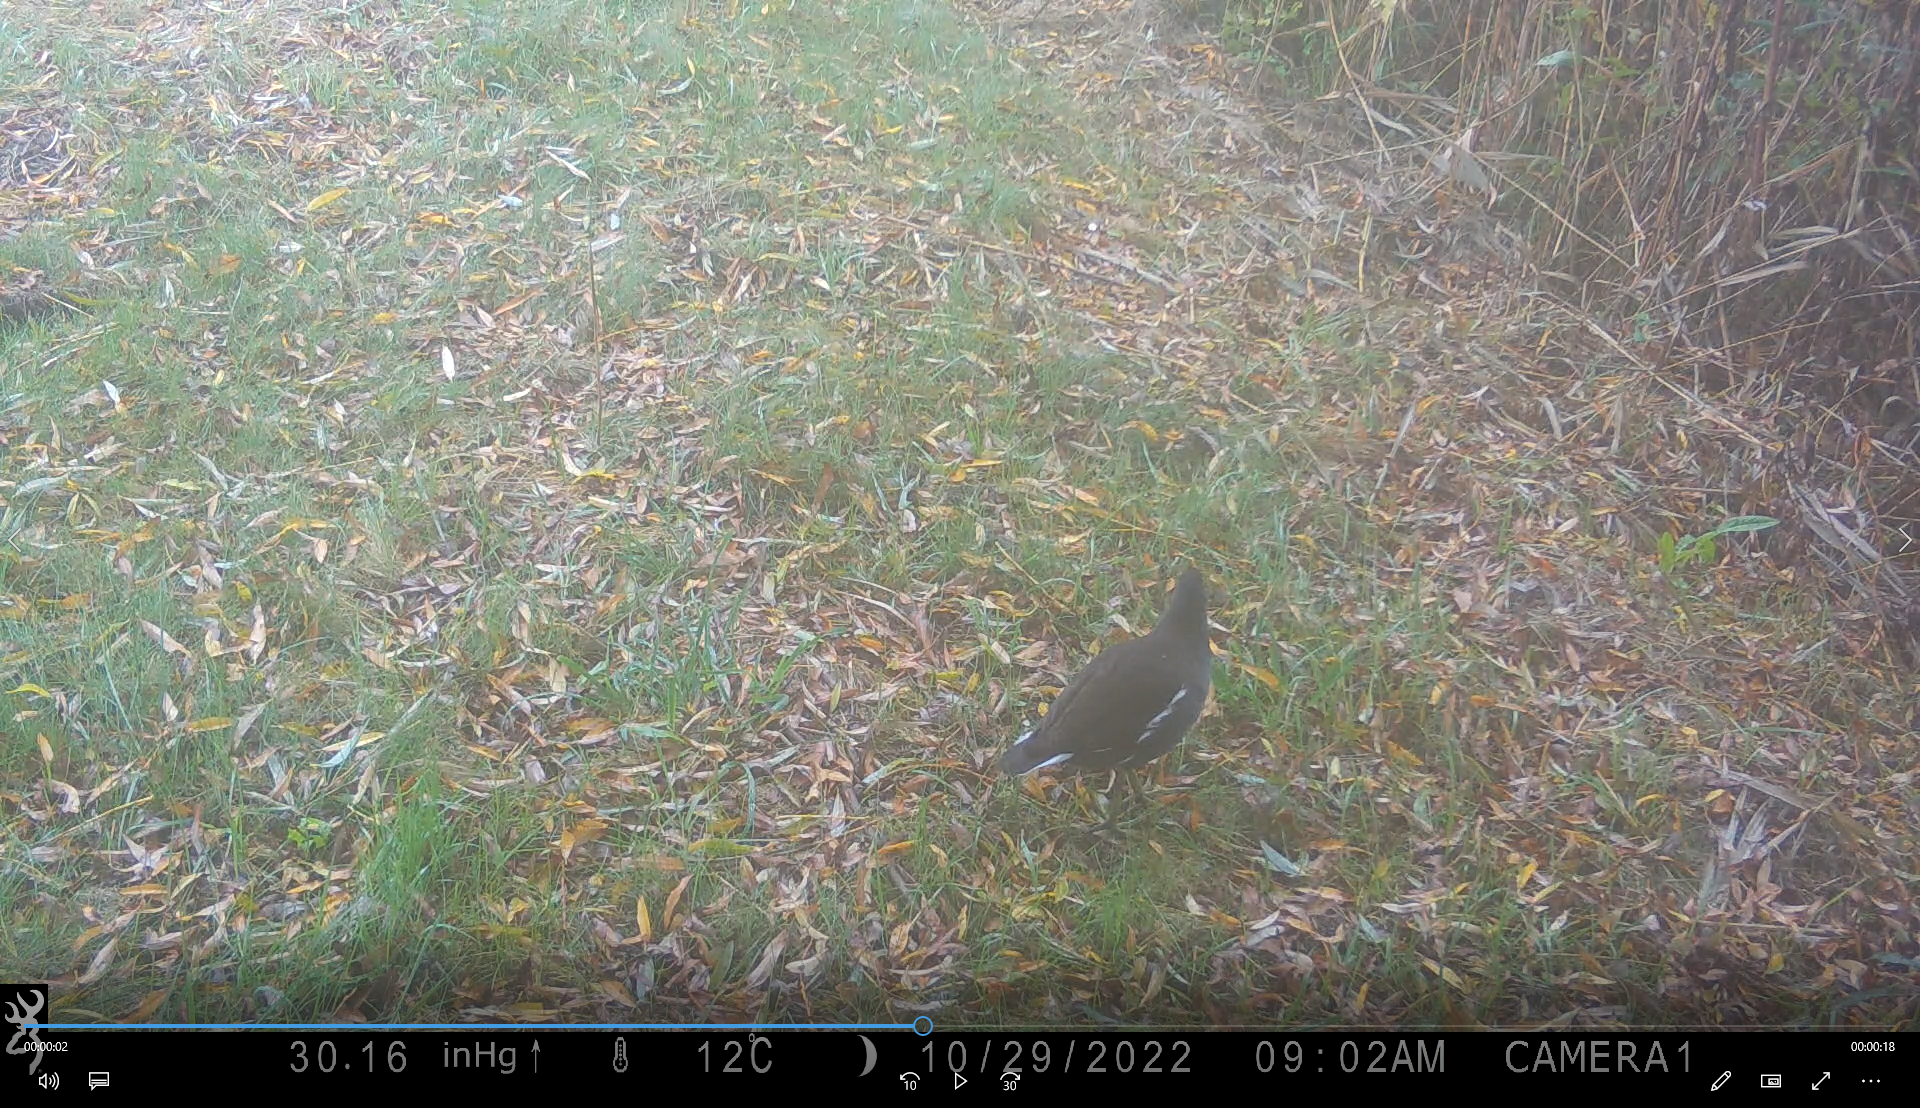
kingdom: Animalia
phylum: Chordata
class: Aves
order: Gruiformes
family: Rallidae
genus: Gallinula
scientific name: Gallinula chloropus
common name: Common moorhen
